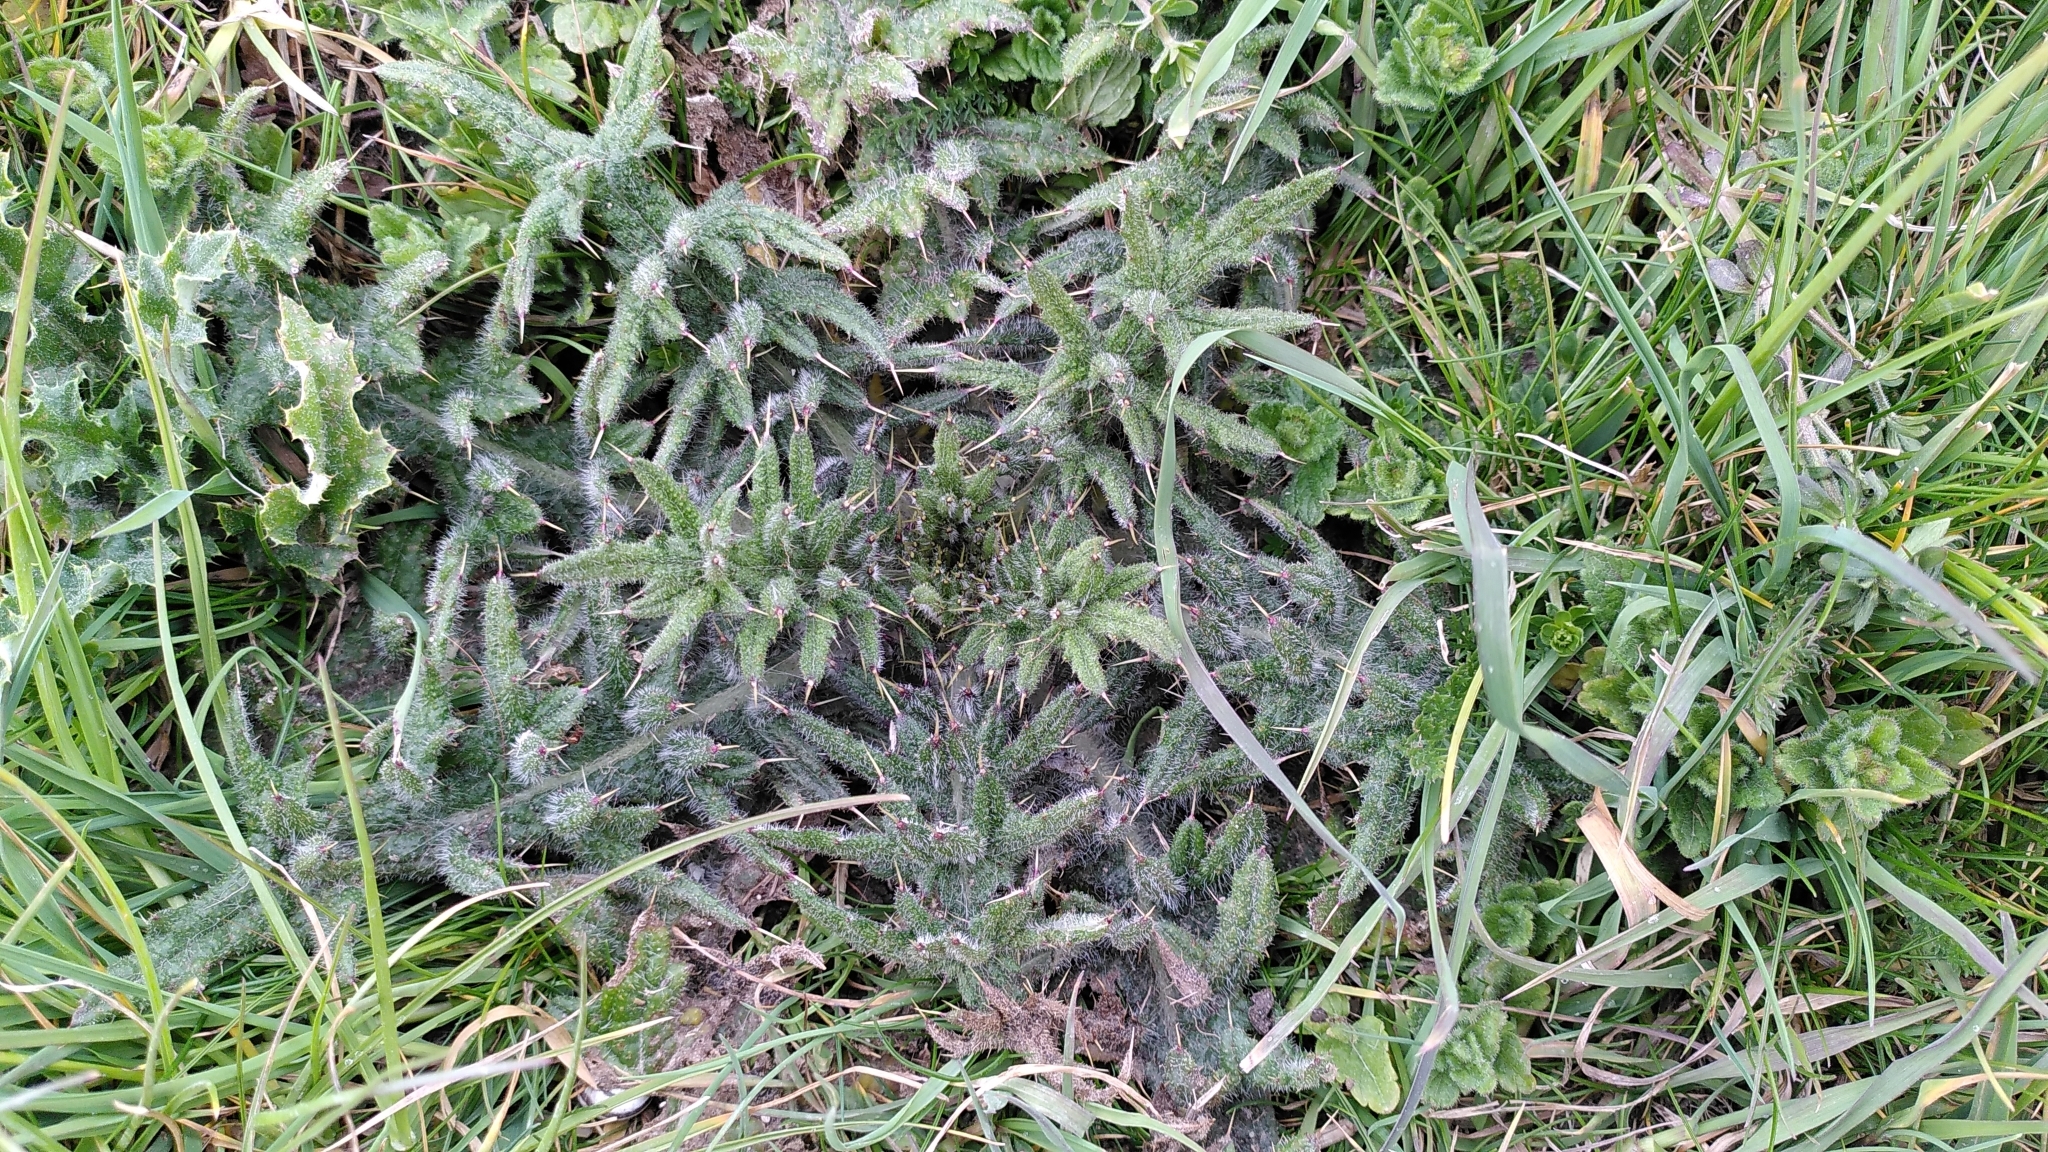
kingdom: Plantae
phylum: Tracheophyta
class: Magnoliopsida
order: Asterales
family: Asteraceae
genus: Cirsium
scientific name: Cirsium vulgare
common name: Bull thistle
